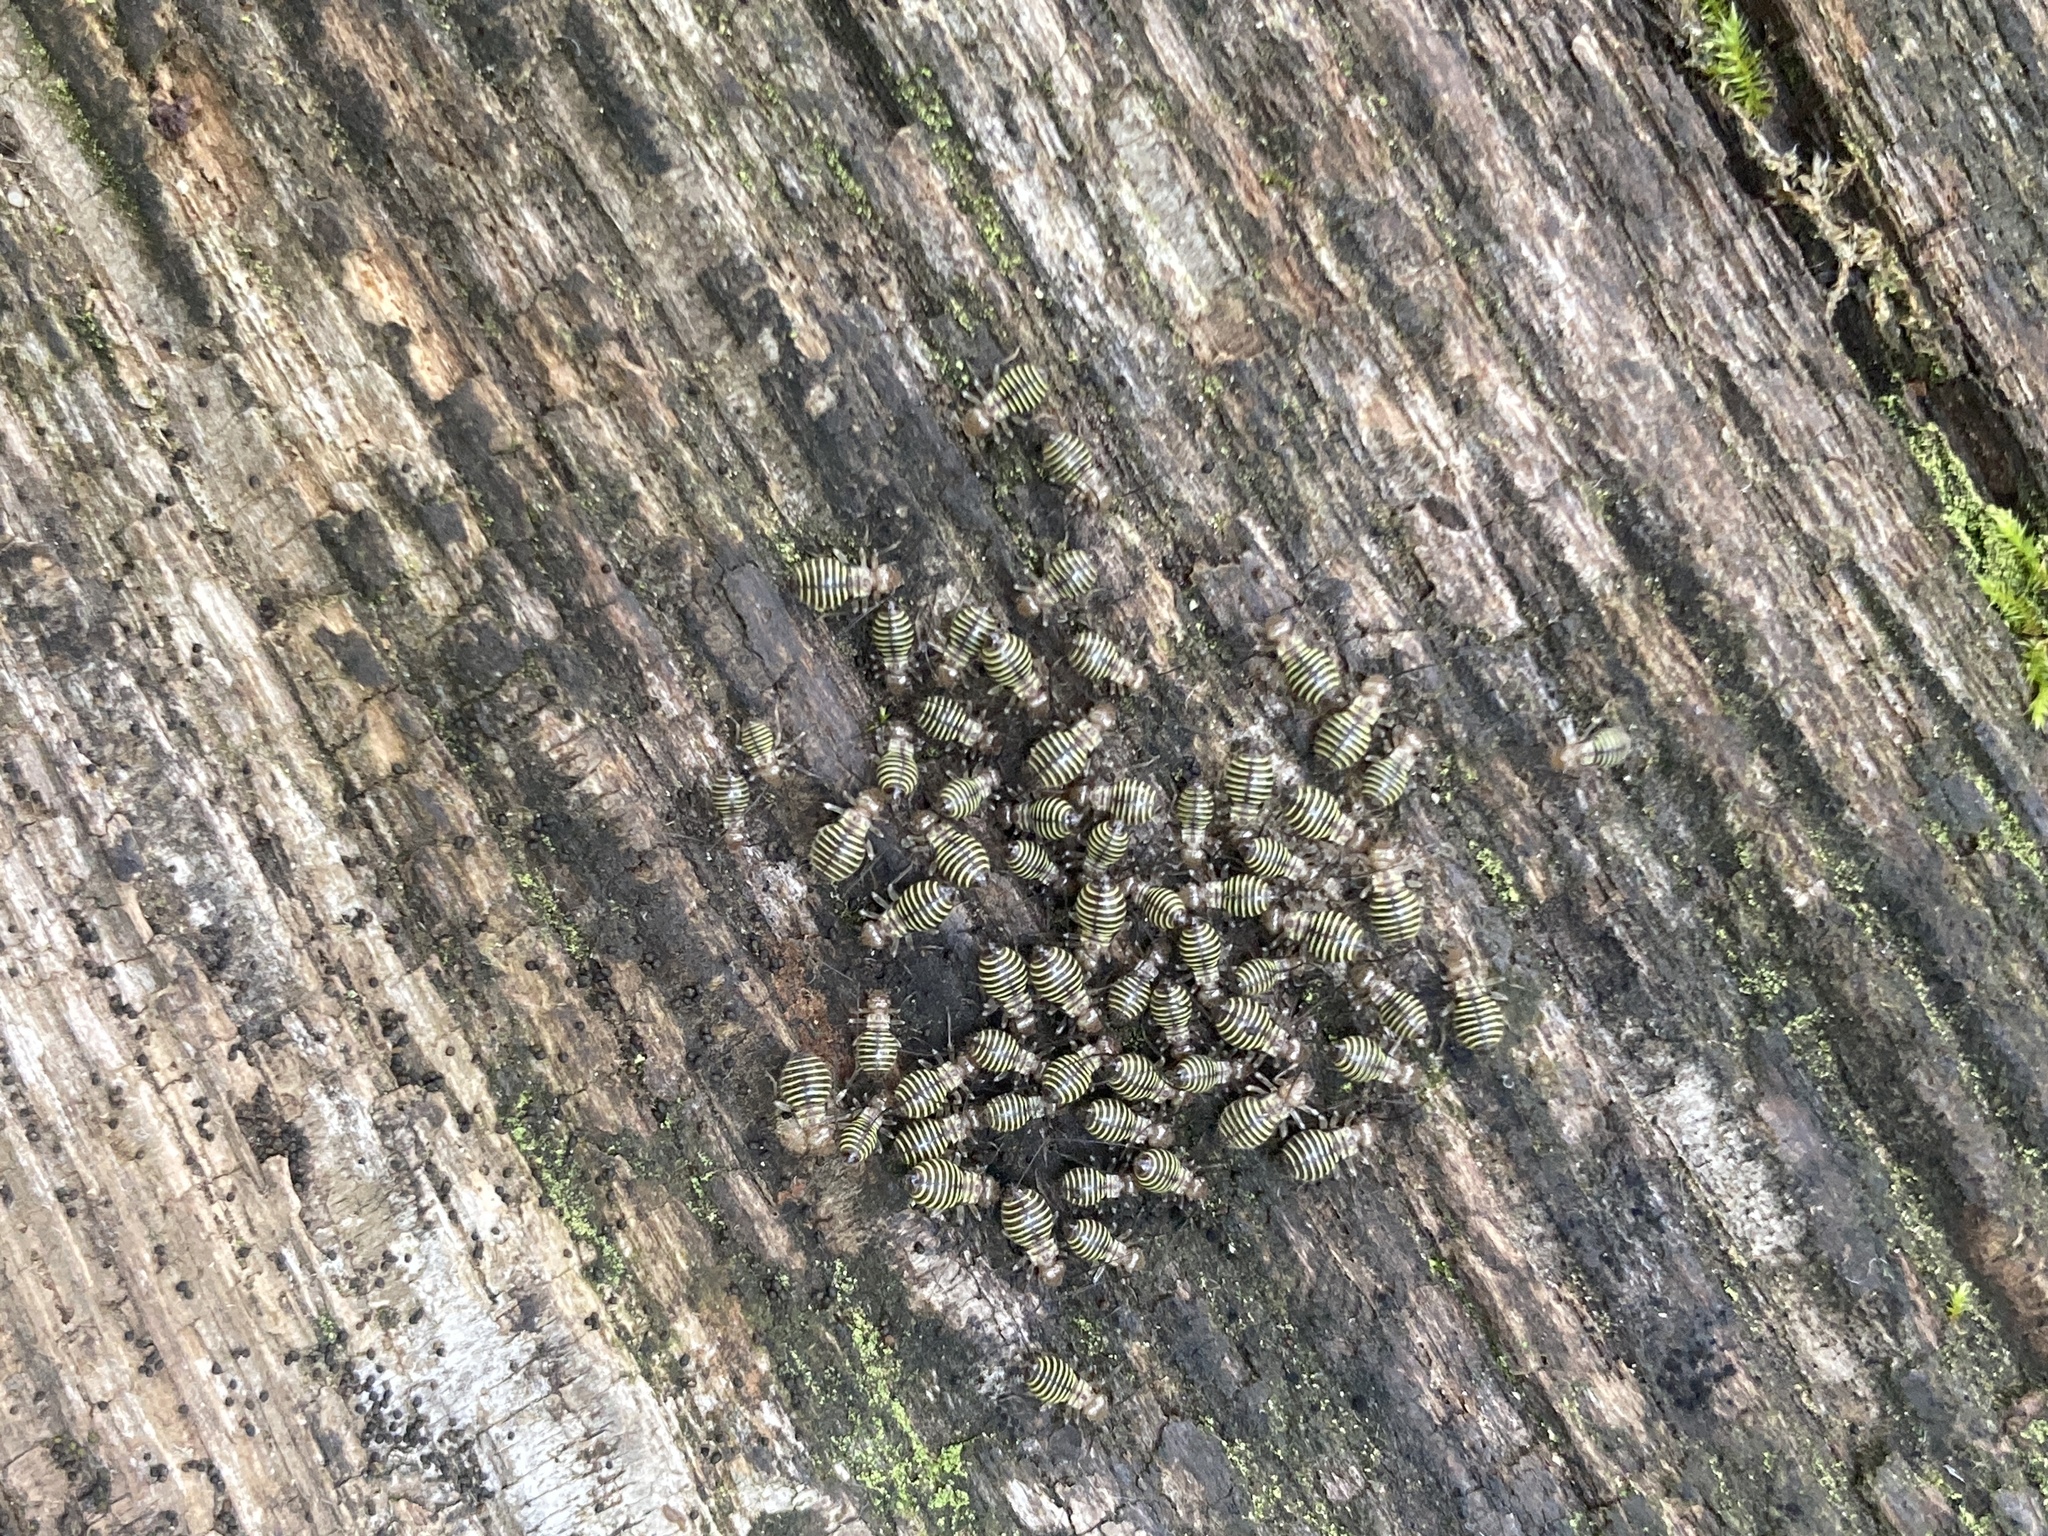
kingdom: Animalia
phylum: Arthropoda
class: Insecta
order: Psocodea
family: Psocidae
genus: Cerastipsocus
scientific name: Cerastipsocus venosus
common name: Tree cattle
